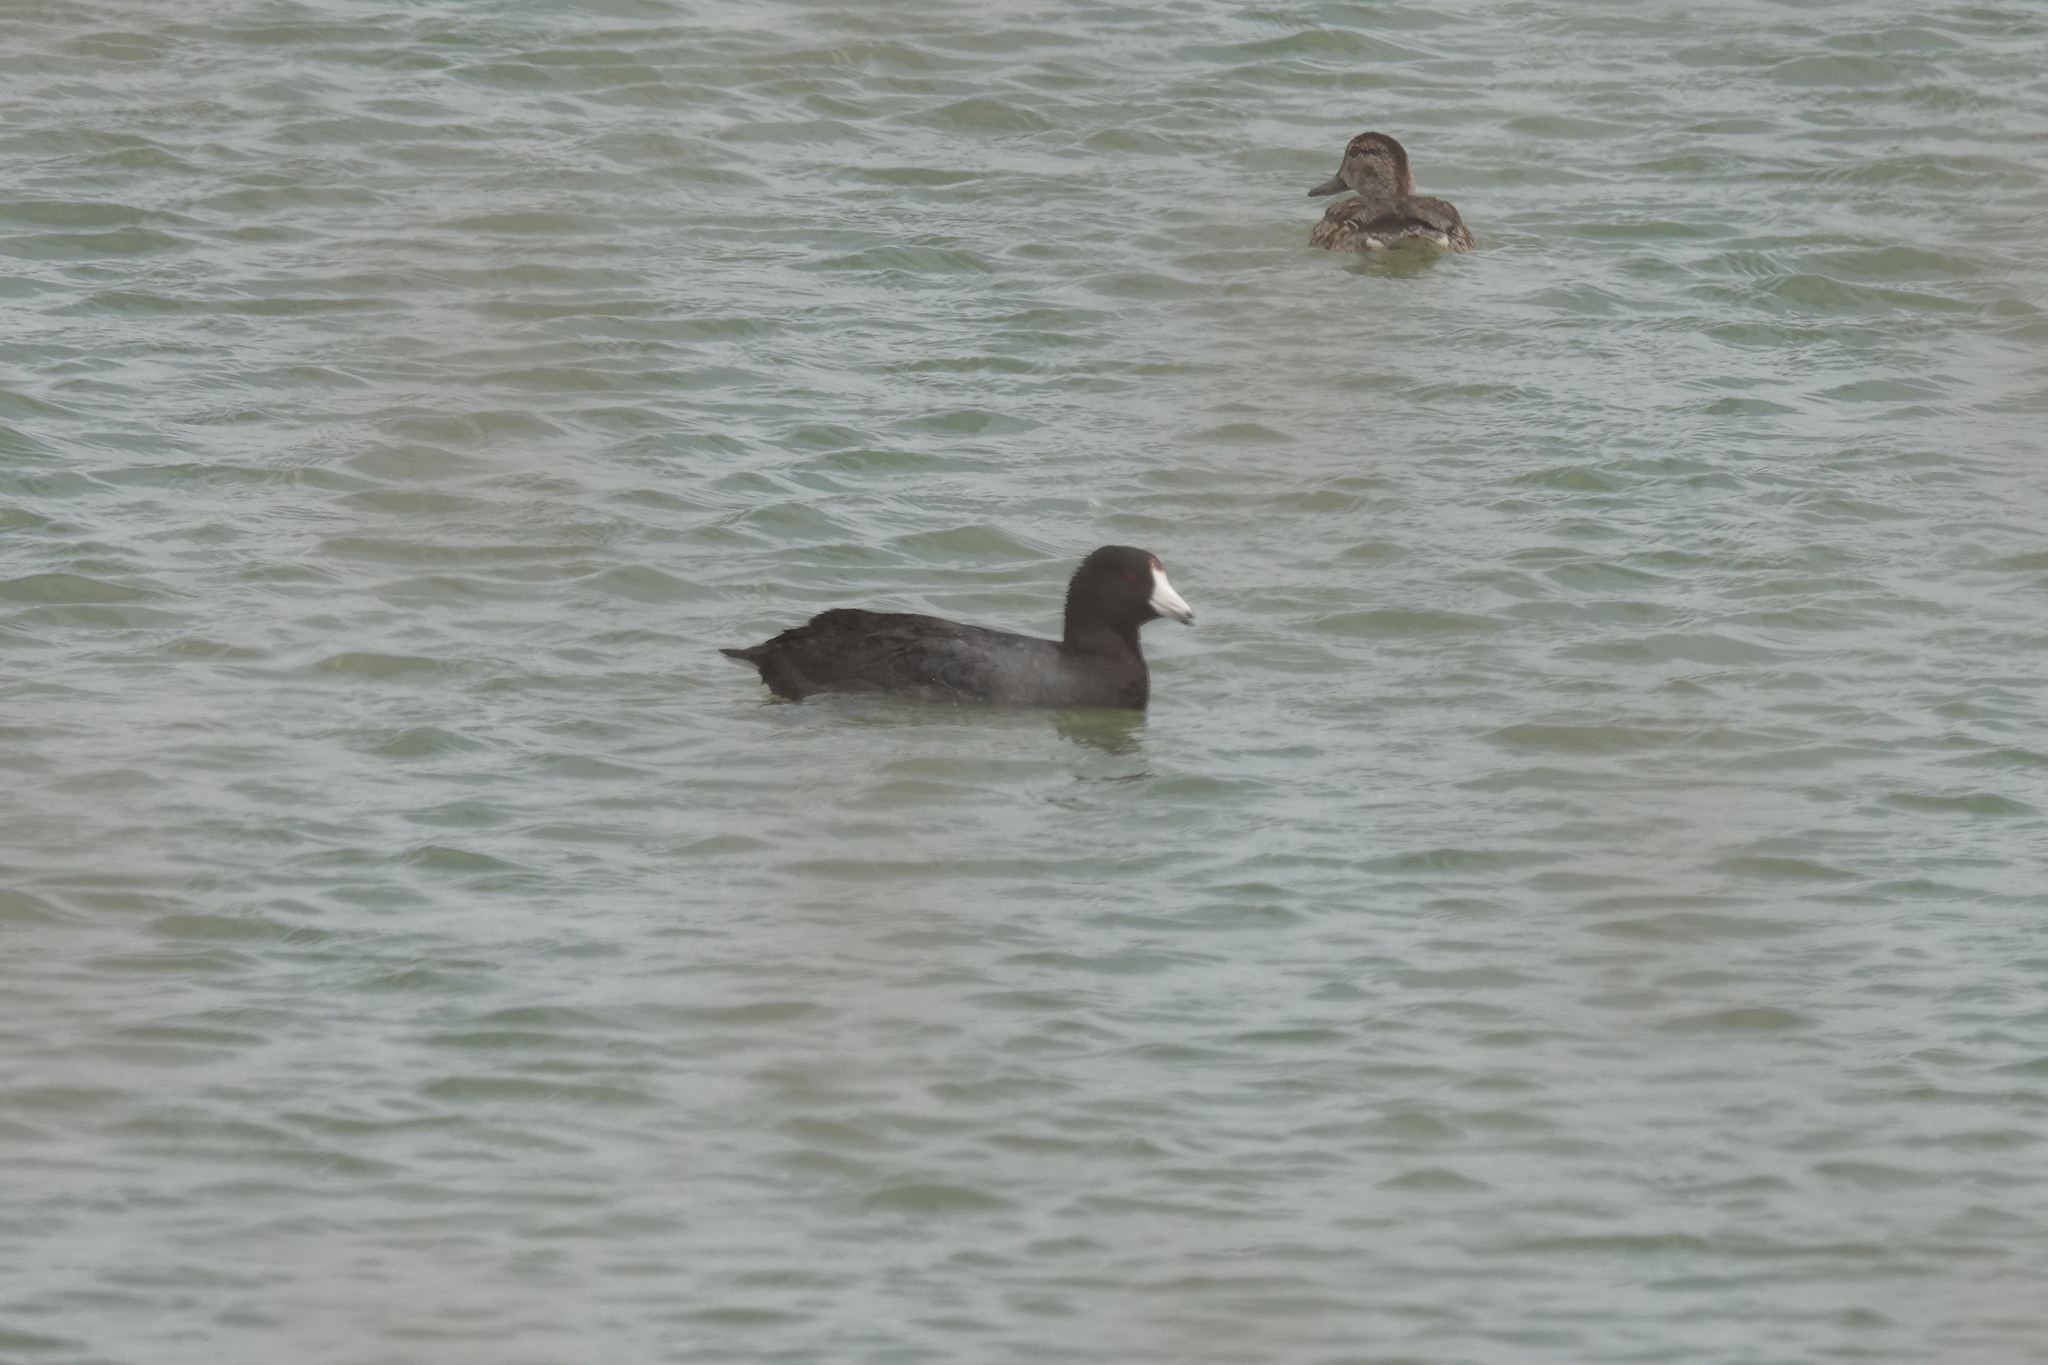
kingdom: Animalia
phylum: Chordata
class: Aves
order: Gruiformes
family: Rallidae
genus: Fulica
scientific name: Fulica americana
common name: American coot
